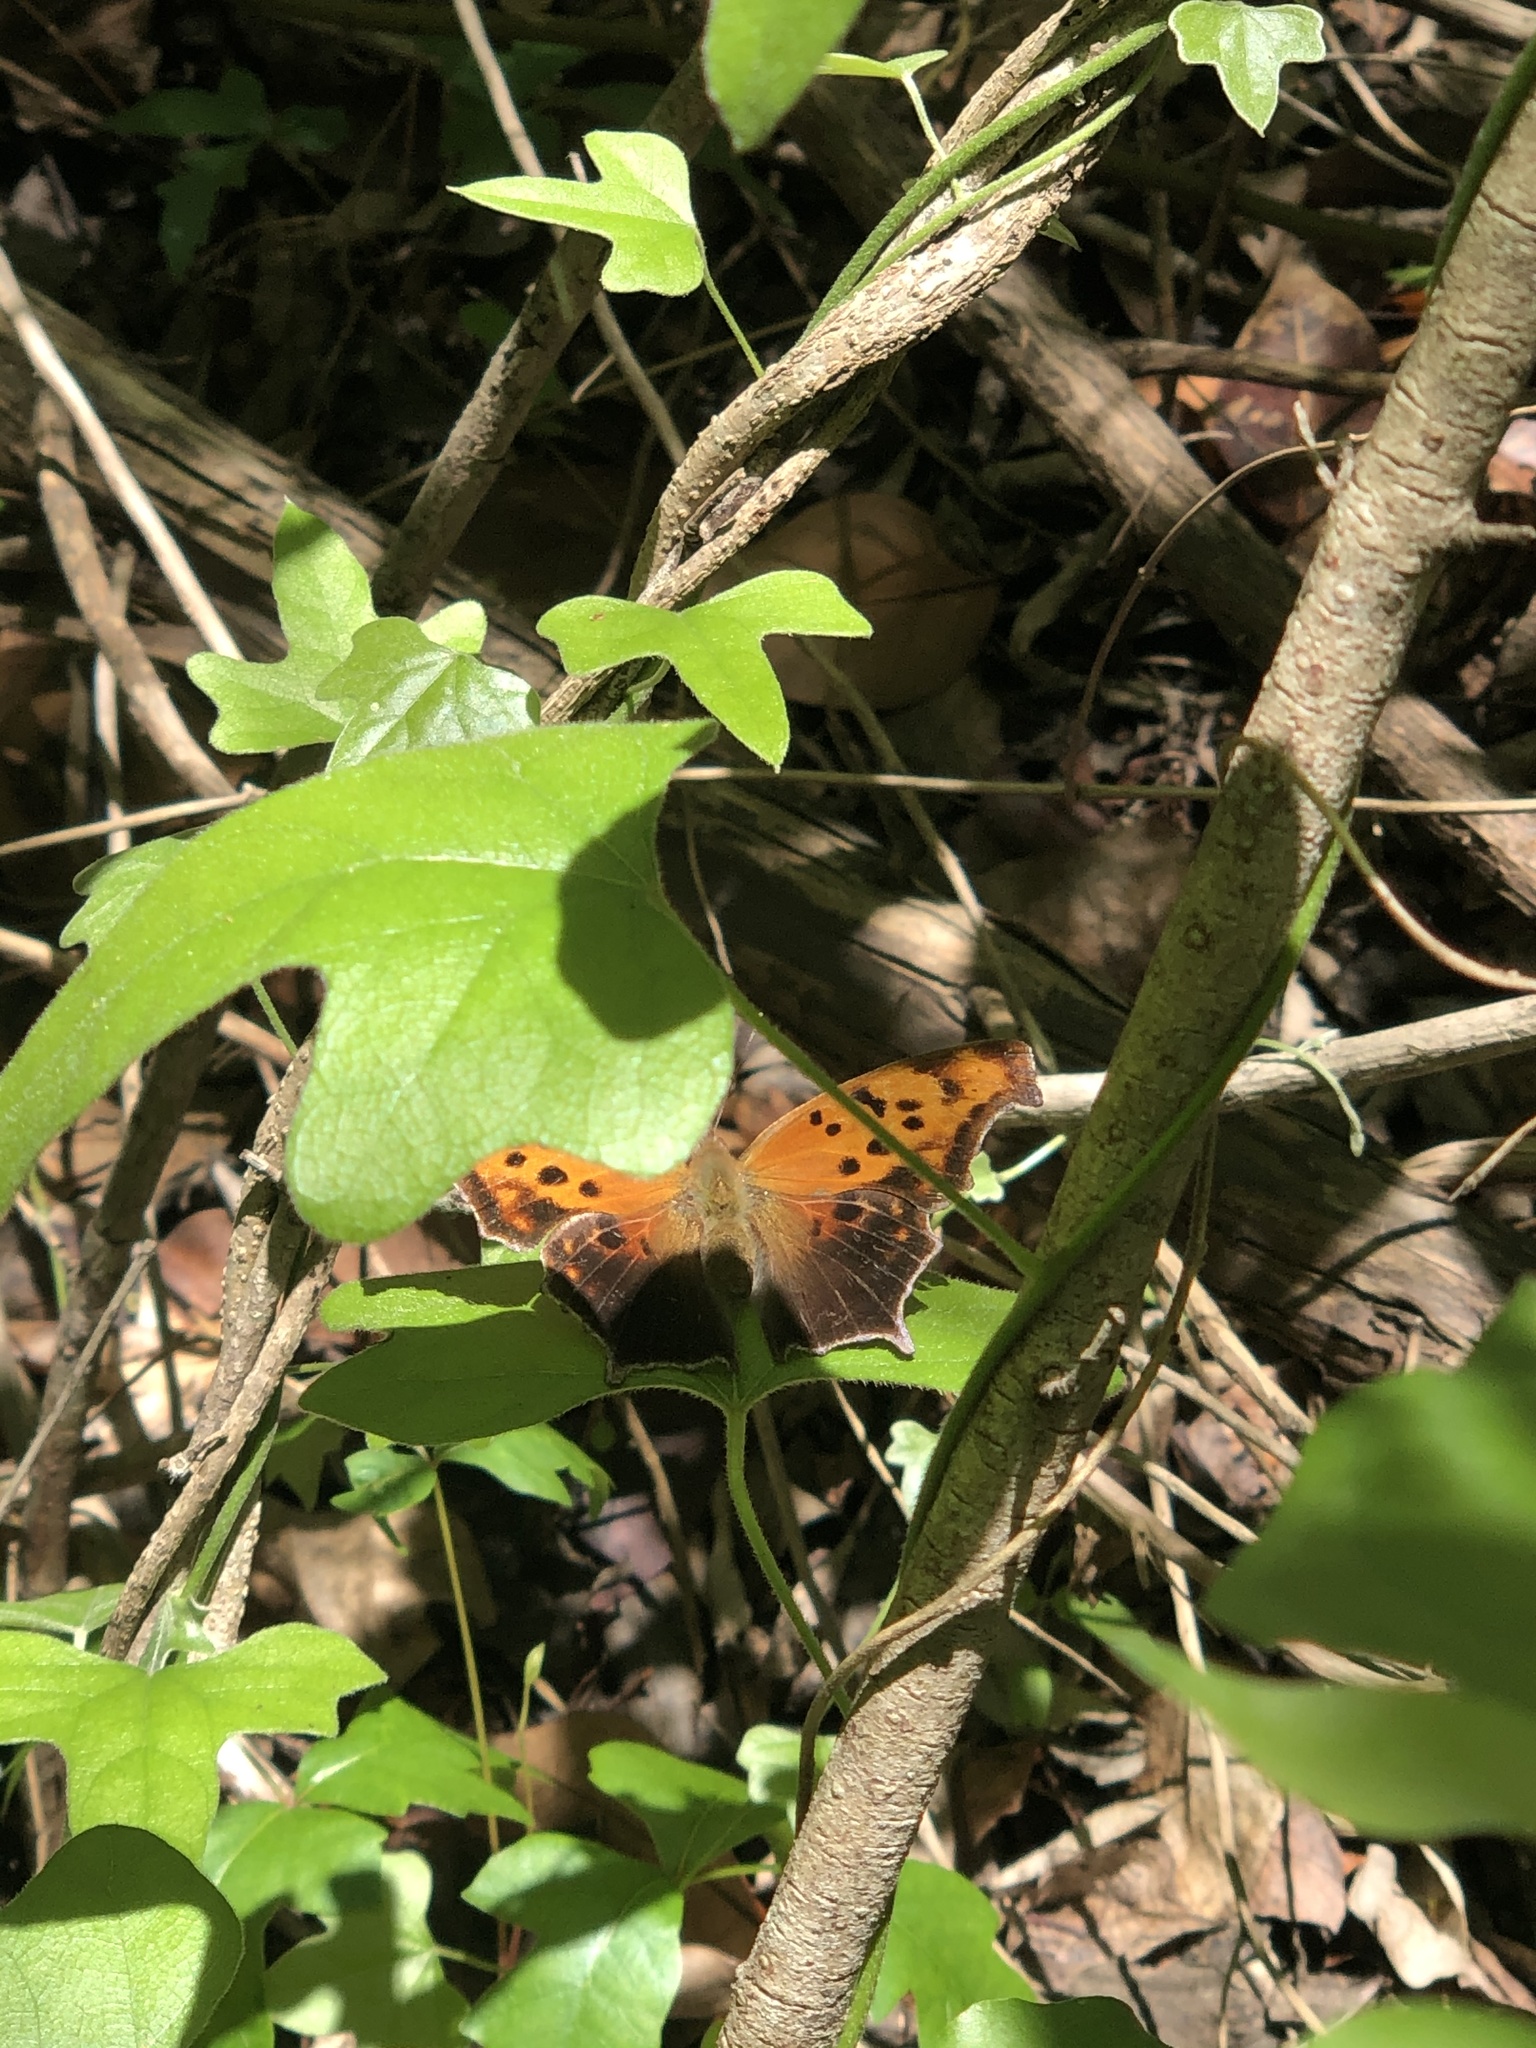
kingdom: Animalia
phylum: Arthropoda
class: Insecta
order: Lepidoptera
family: Nymphalidae
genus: Polygonia
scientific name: Polygonia interrogationis
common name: Question mark
